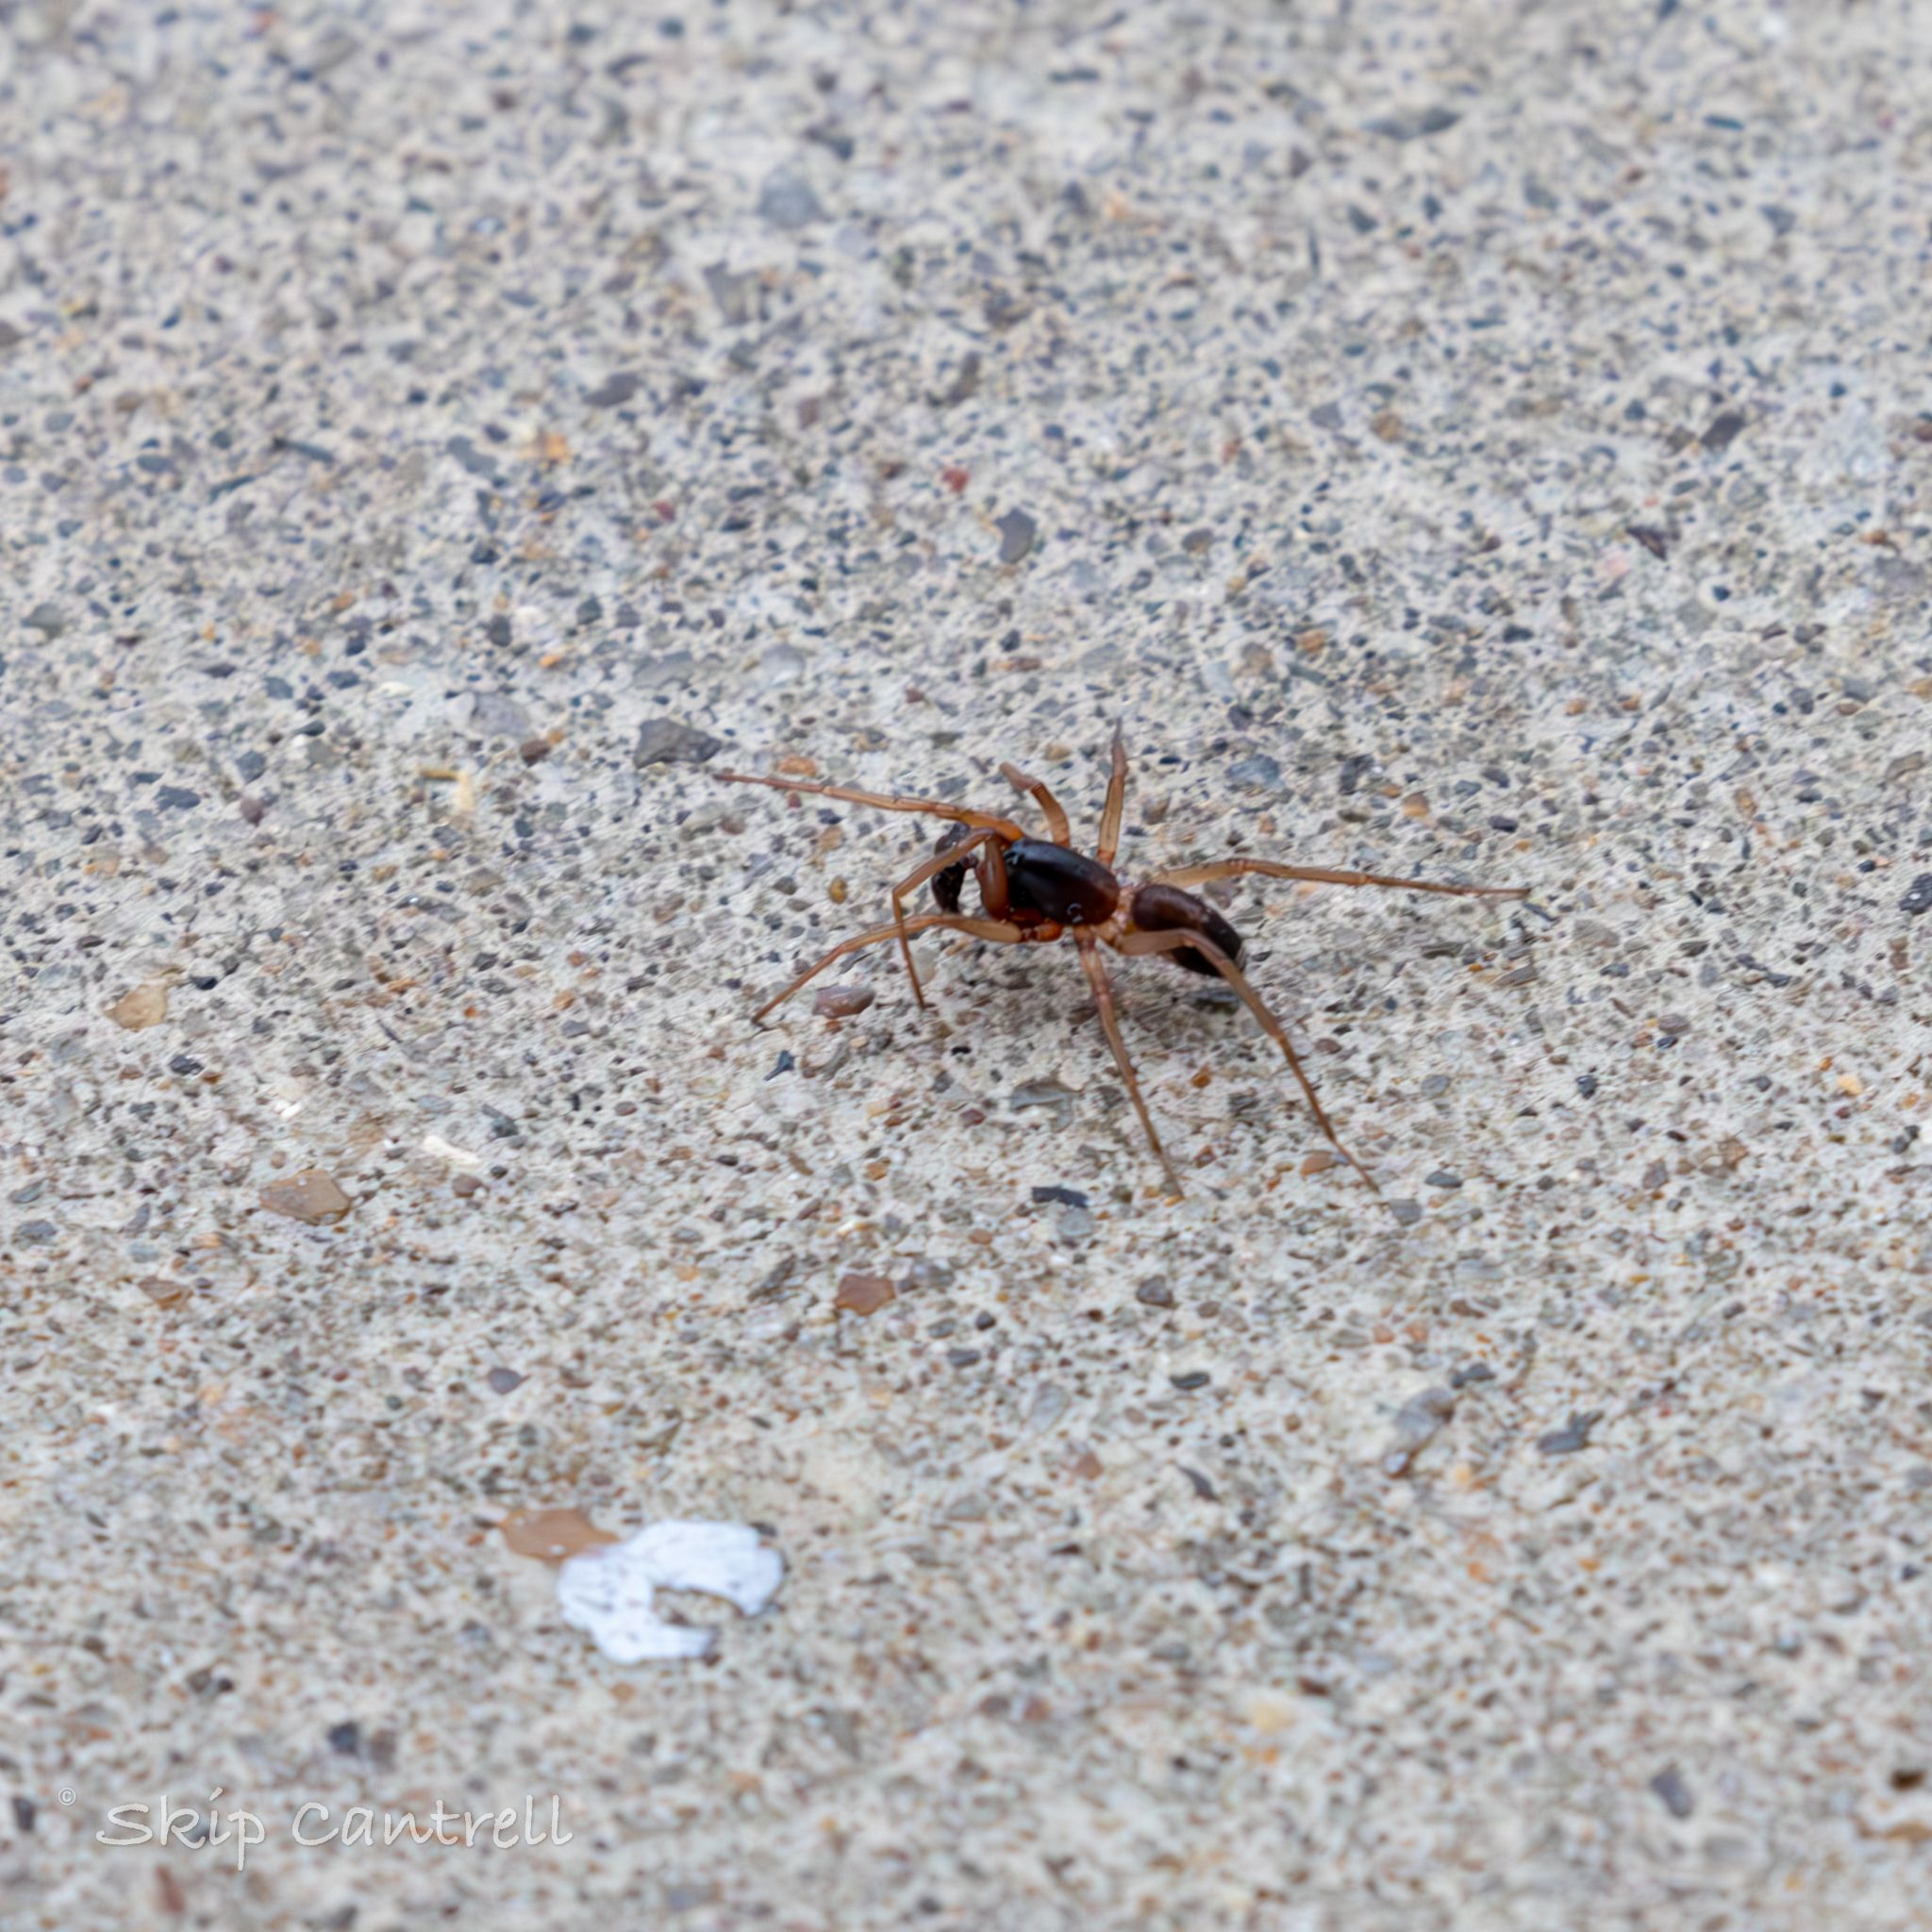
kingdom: Animalia
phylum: Arthropoda
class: Arachnida
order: Araneae
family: Corinnidae
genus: Falconina
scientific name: Falconina gracilis
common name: Antmimic spider
